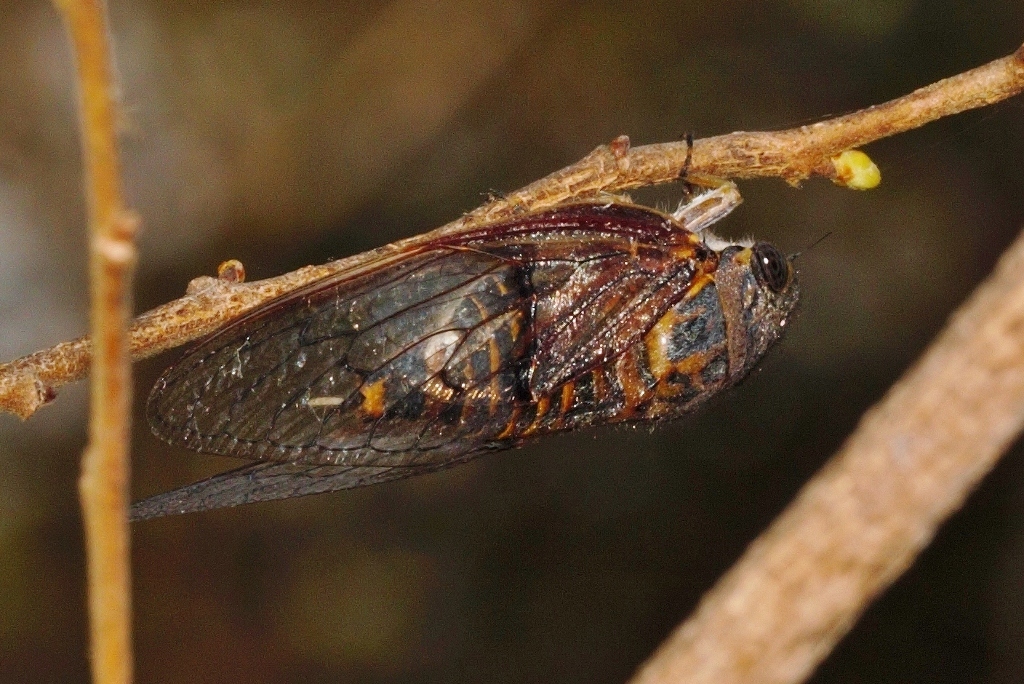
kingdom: Animalia
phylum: Arthropoda
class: Insecta
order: Hemiptera
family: Cicadidae
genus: Koma
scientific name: Koma bombifrons
